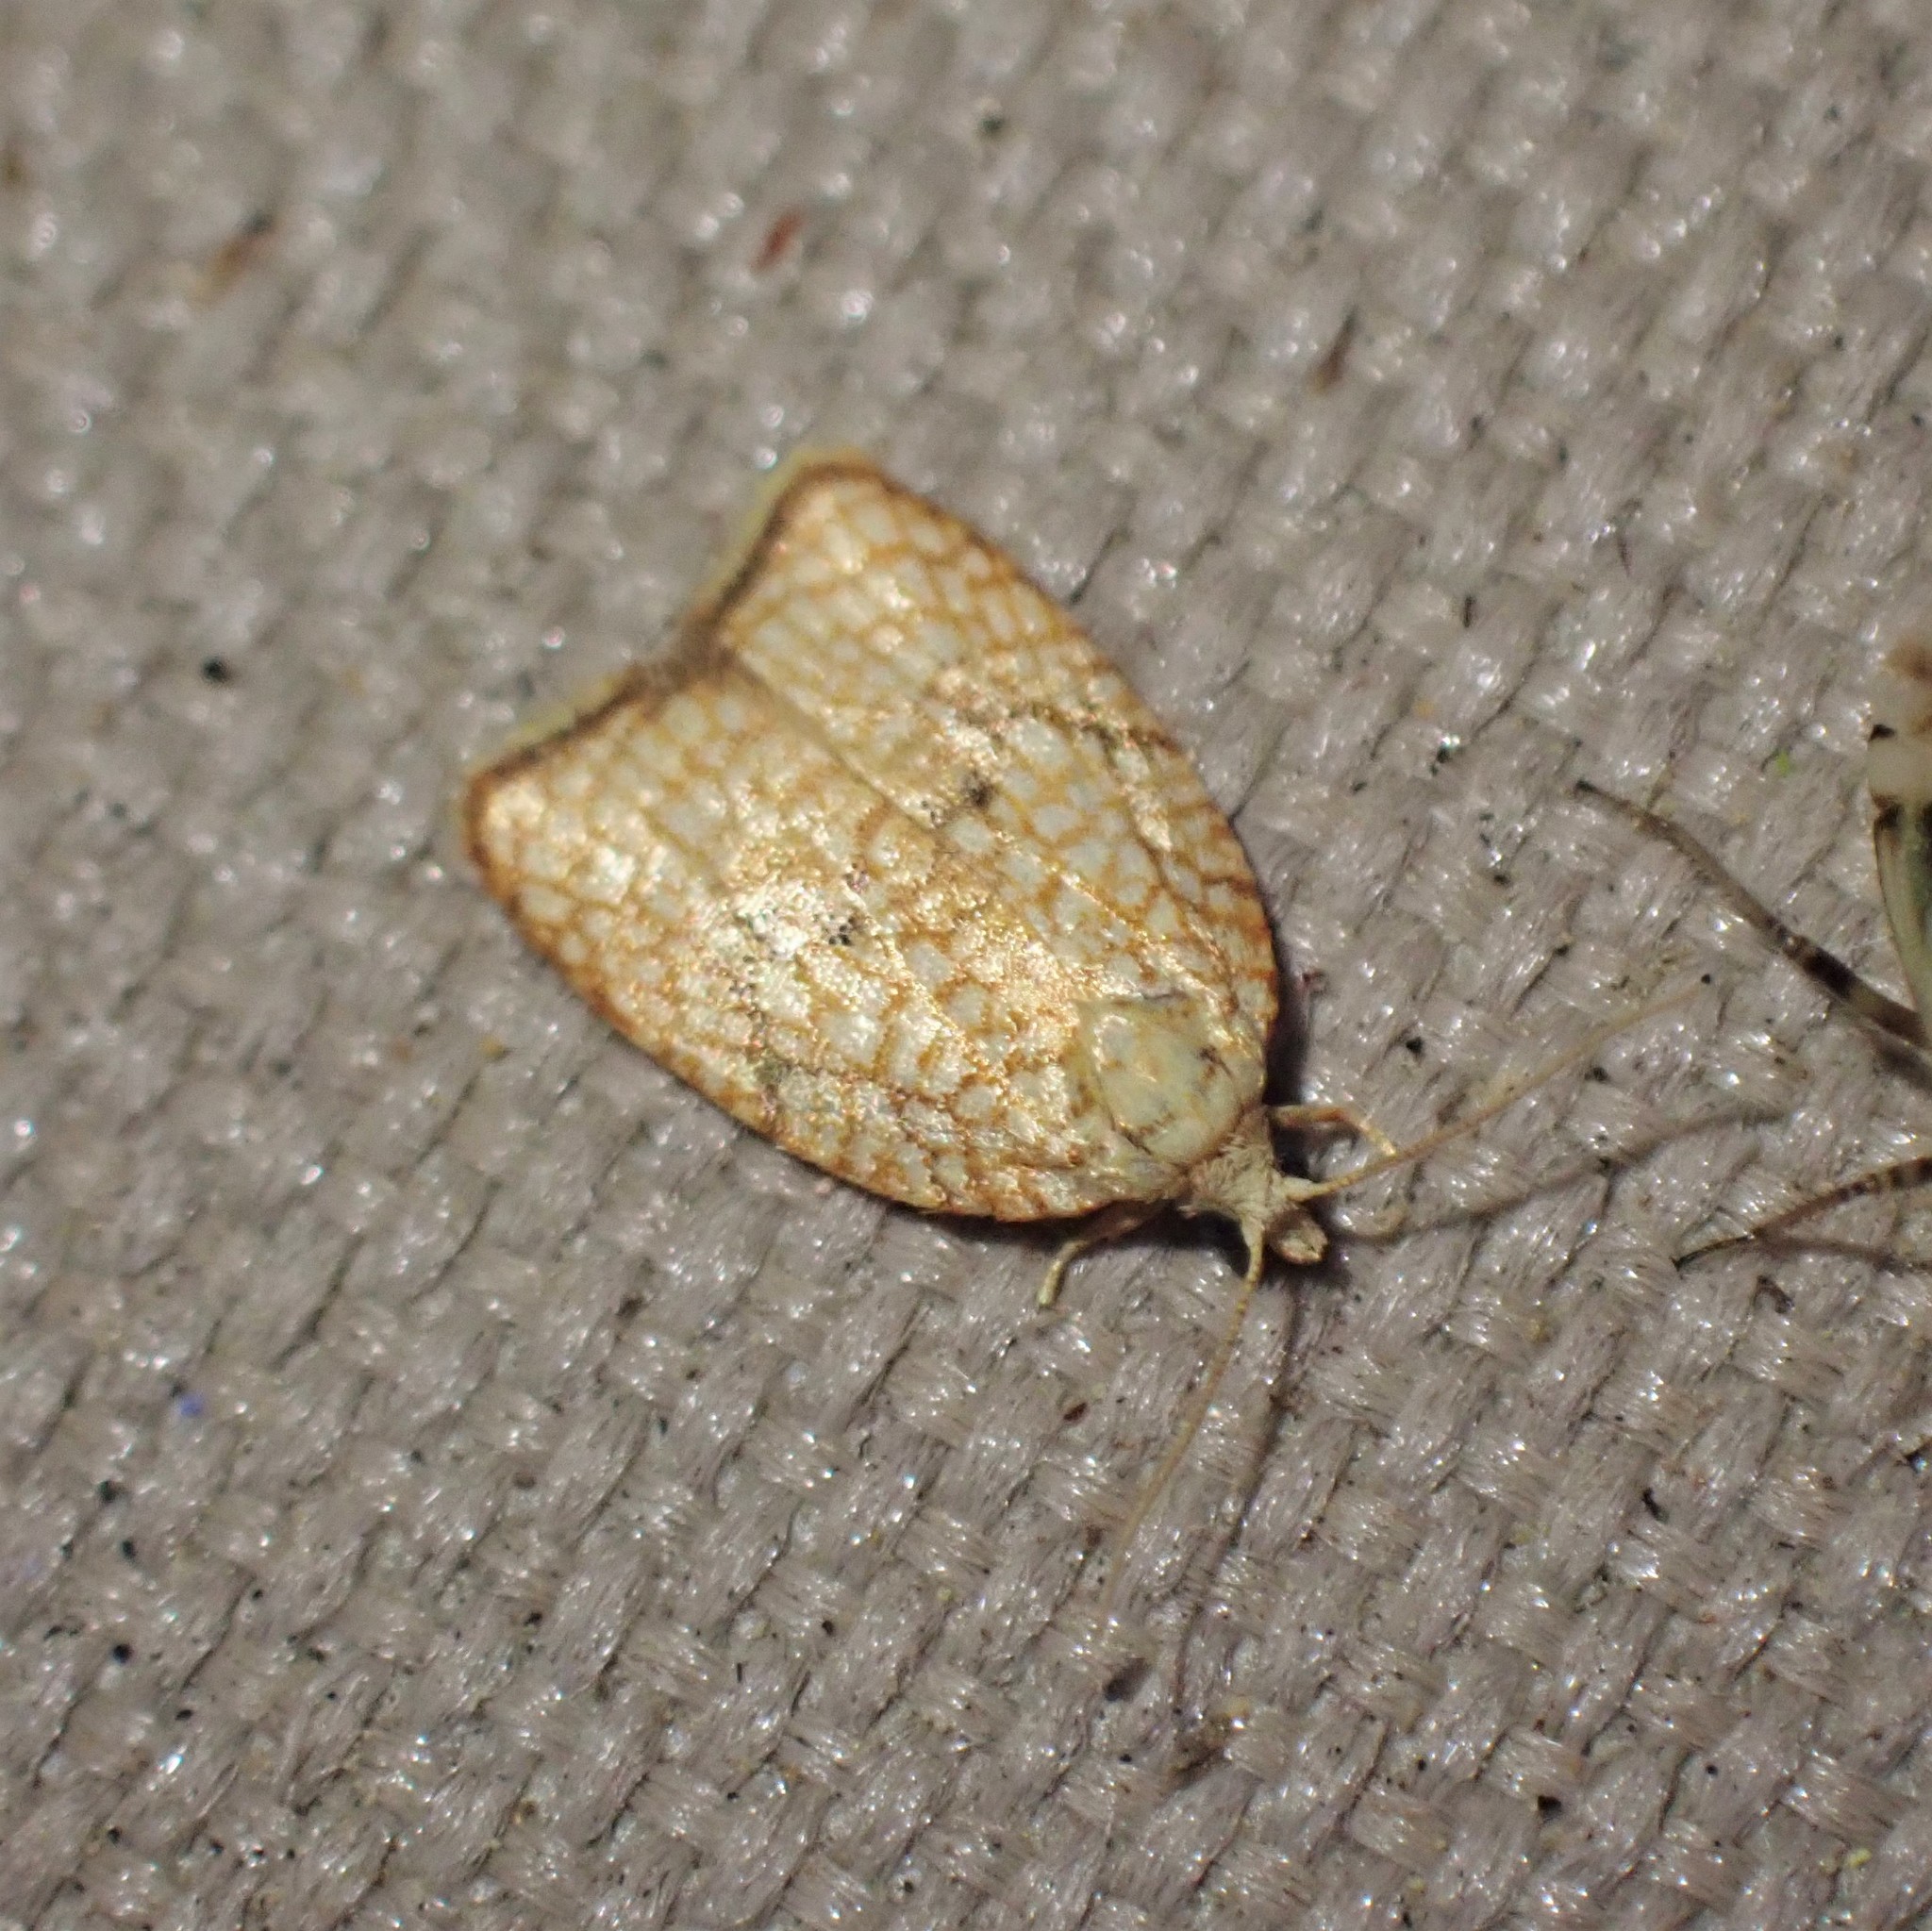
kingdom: Animalia
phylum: Arthropoda
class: Insecta
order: Lepidoptera
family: Tortricidae
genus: Acleris
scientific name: Acleris forsskaleana
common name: Maple button
